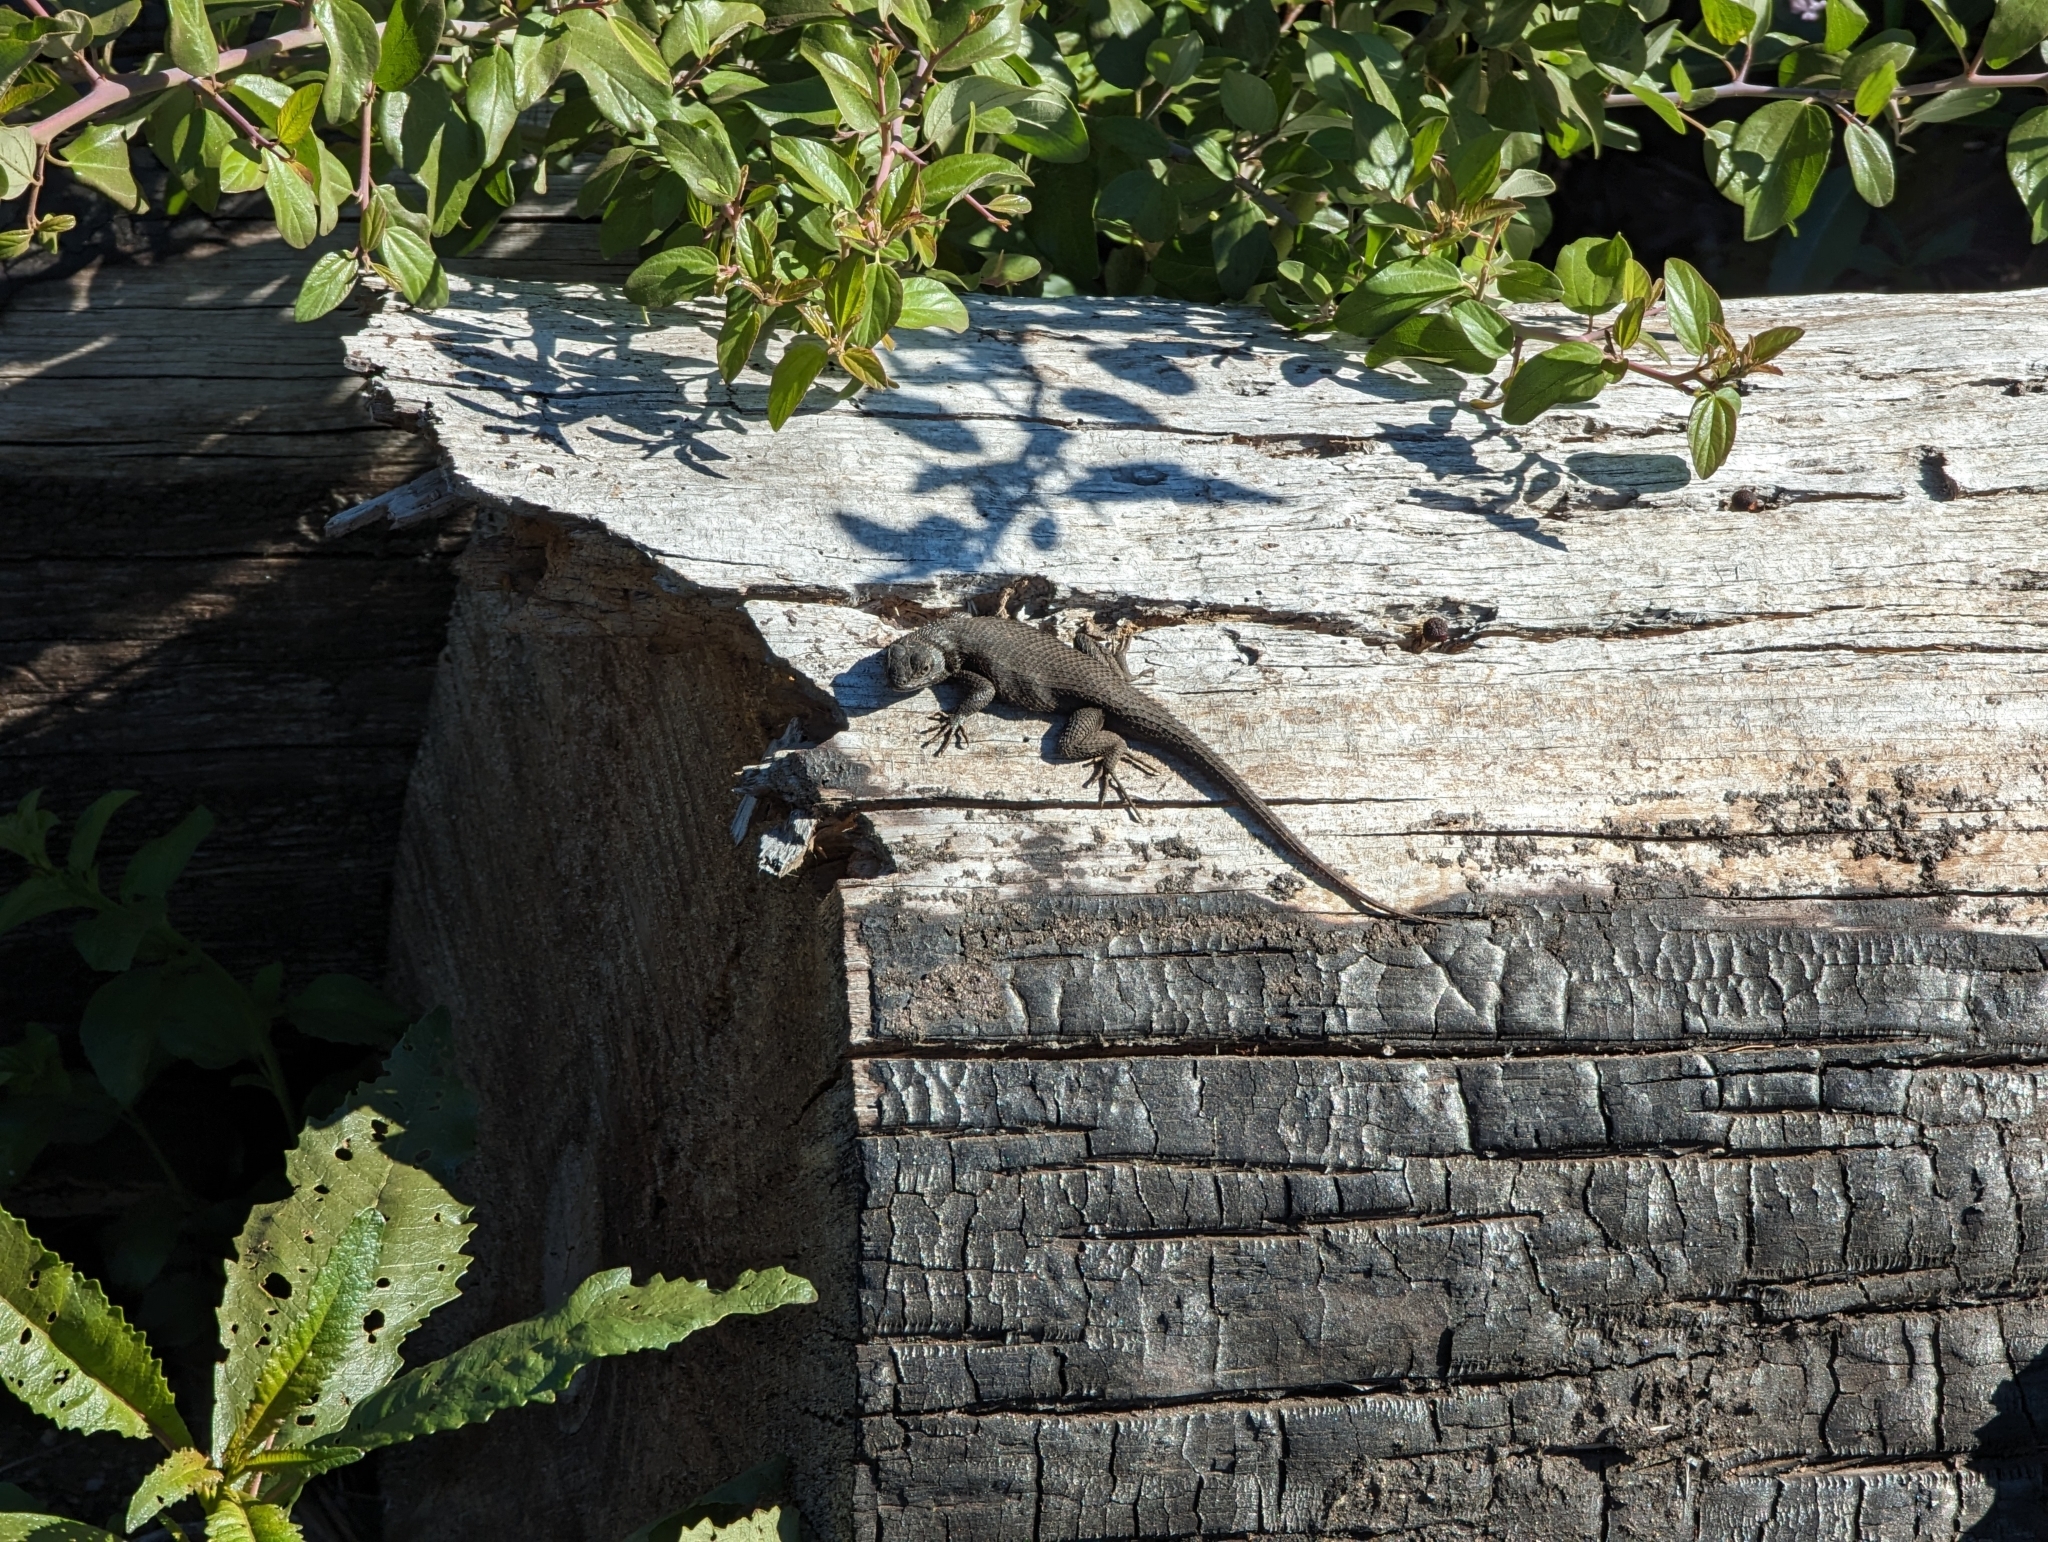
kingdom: Animalia
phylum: Chordata
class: Squamata
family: Phrynosomatidae
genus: Sceloporus
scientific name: Sceloporus occidentalis
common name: Western fence lizard
